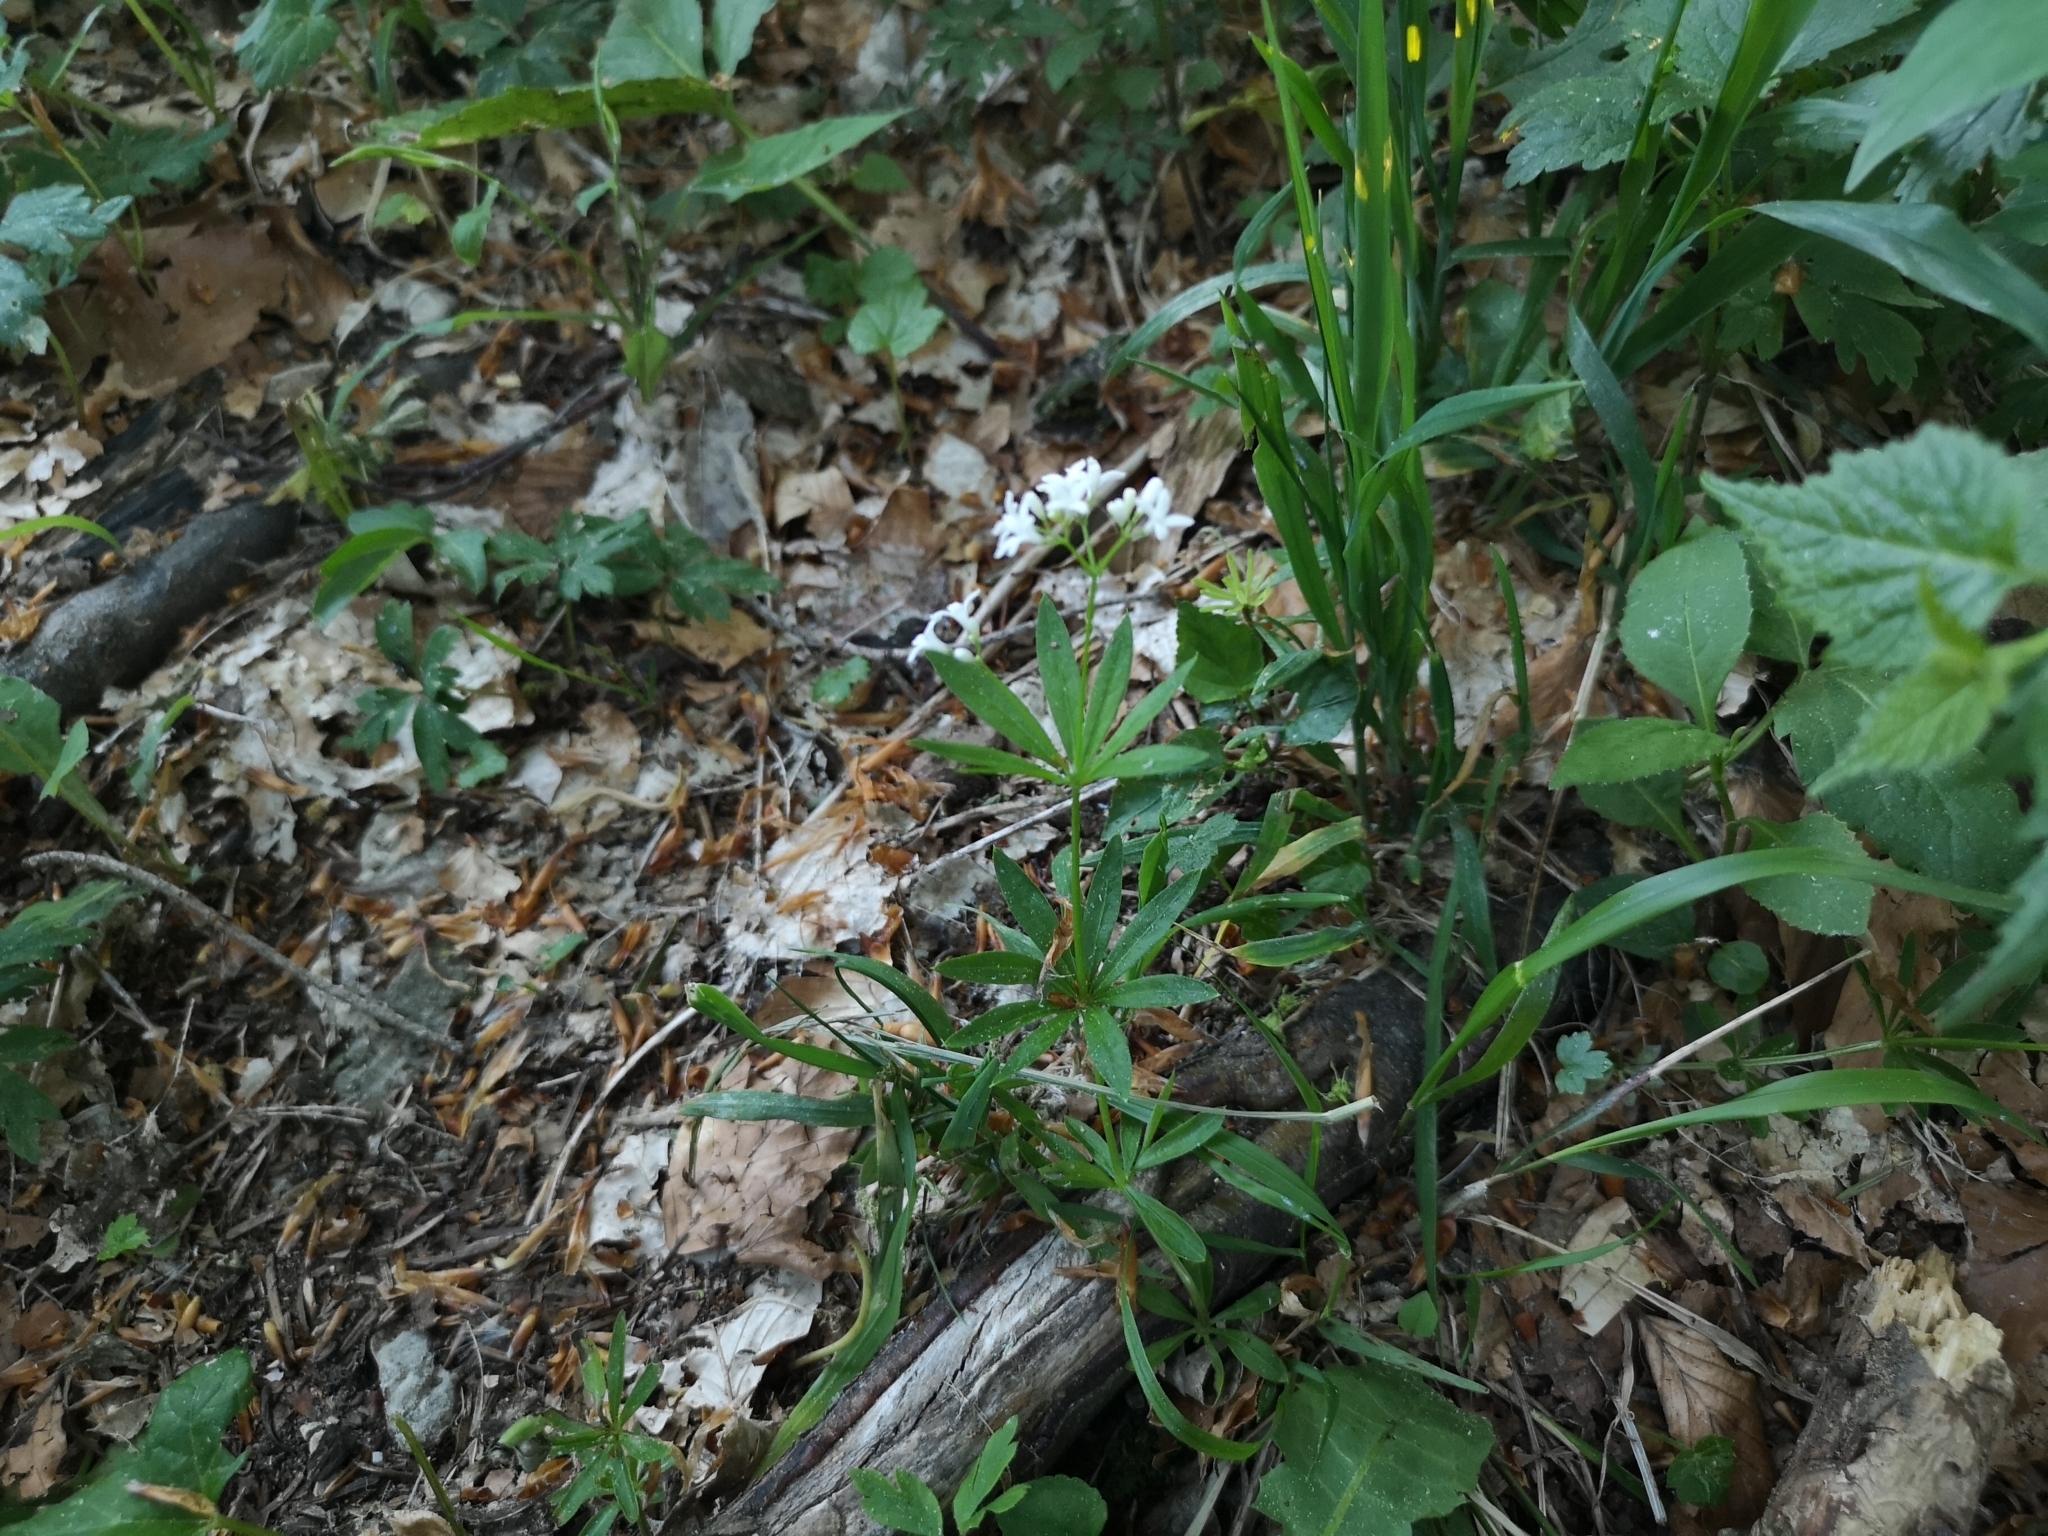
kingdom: Plantae
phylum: Tracheophyta
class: Magnoliopsida
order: Gentianales
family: Rubiaceae
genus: Galium
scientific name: Galium odoratum
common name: Sweet woodruff
